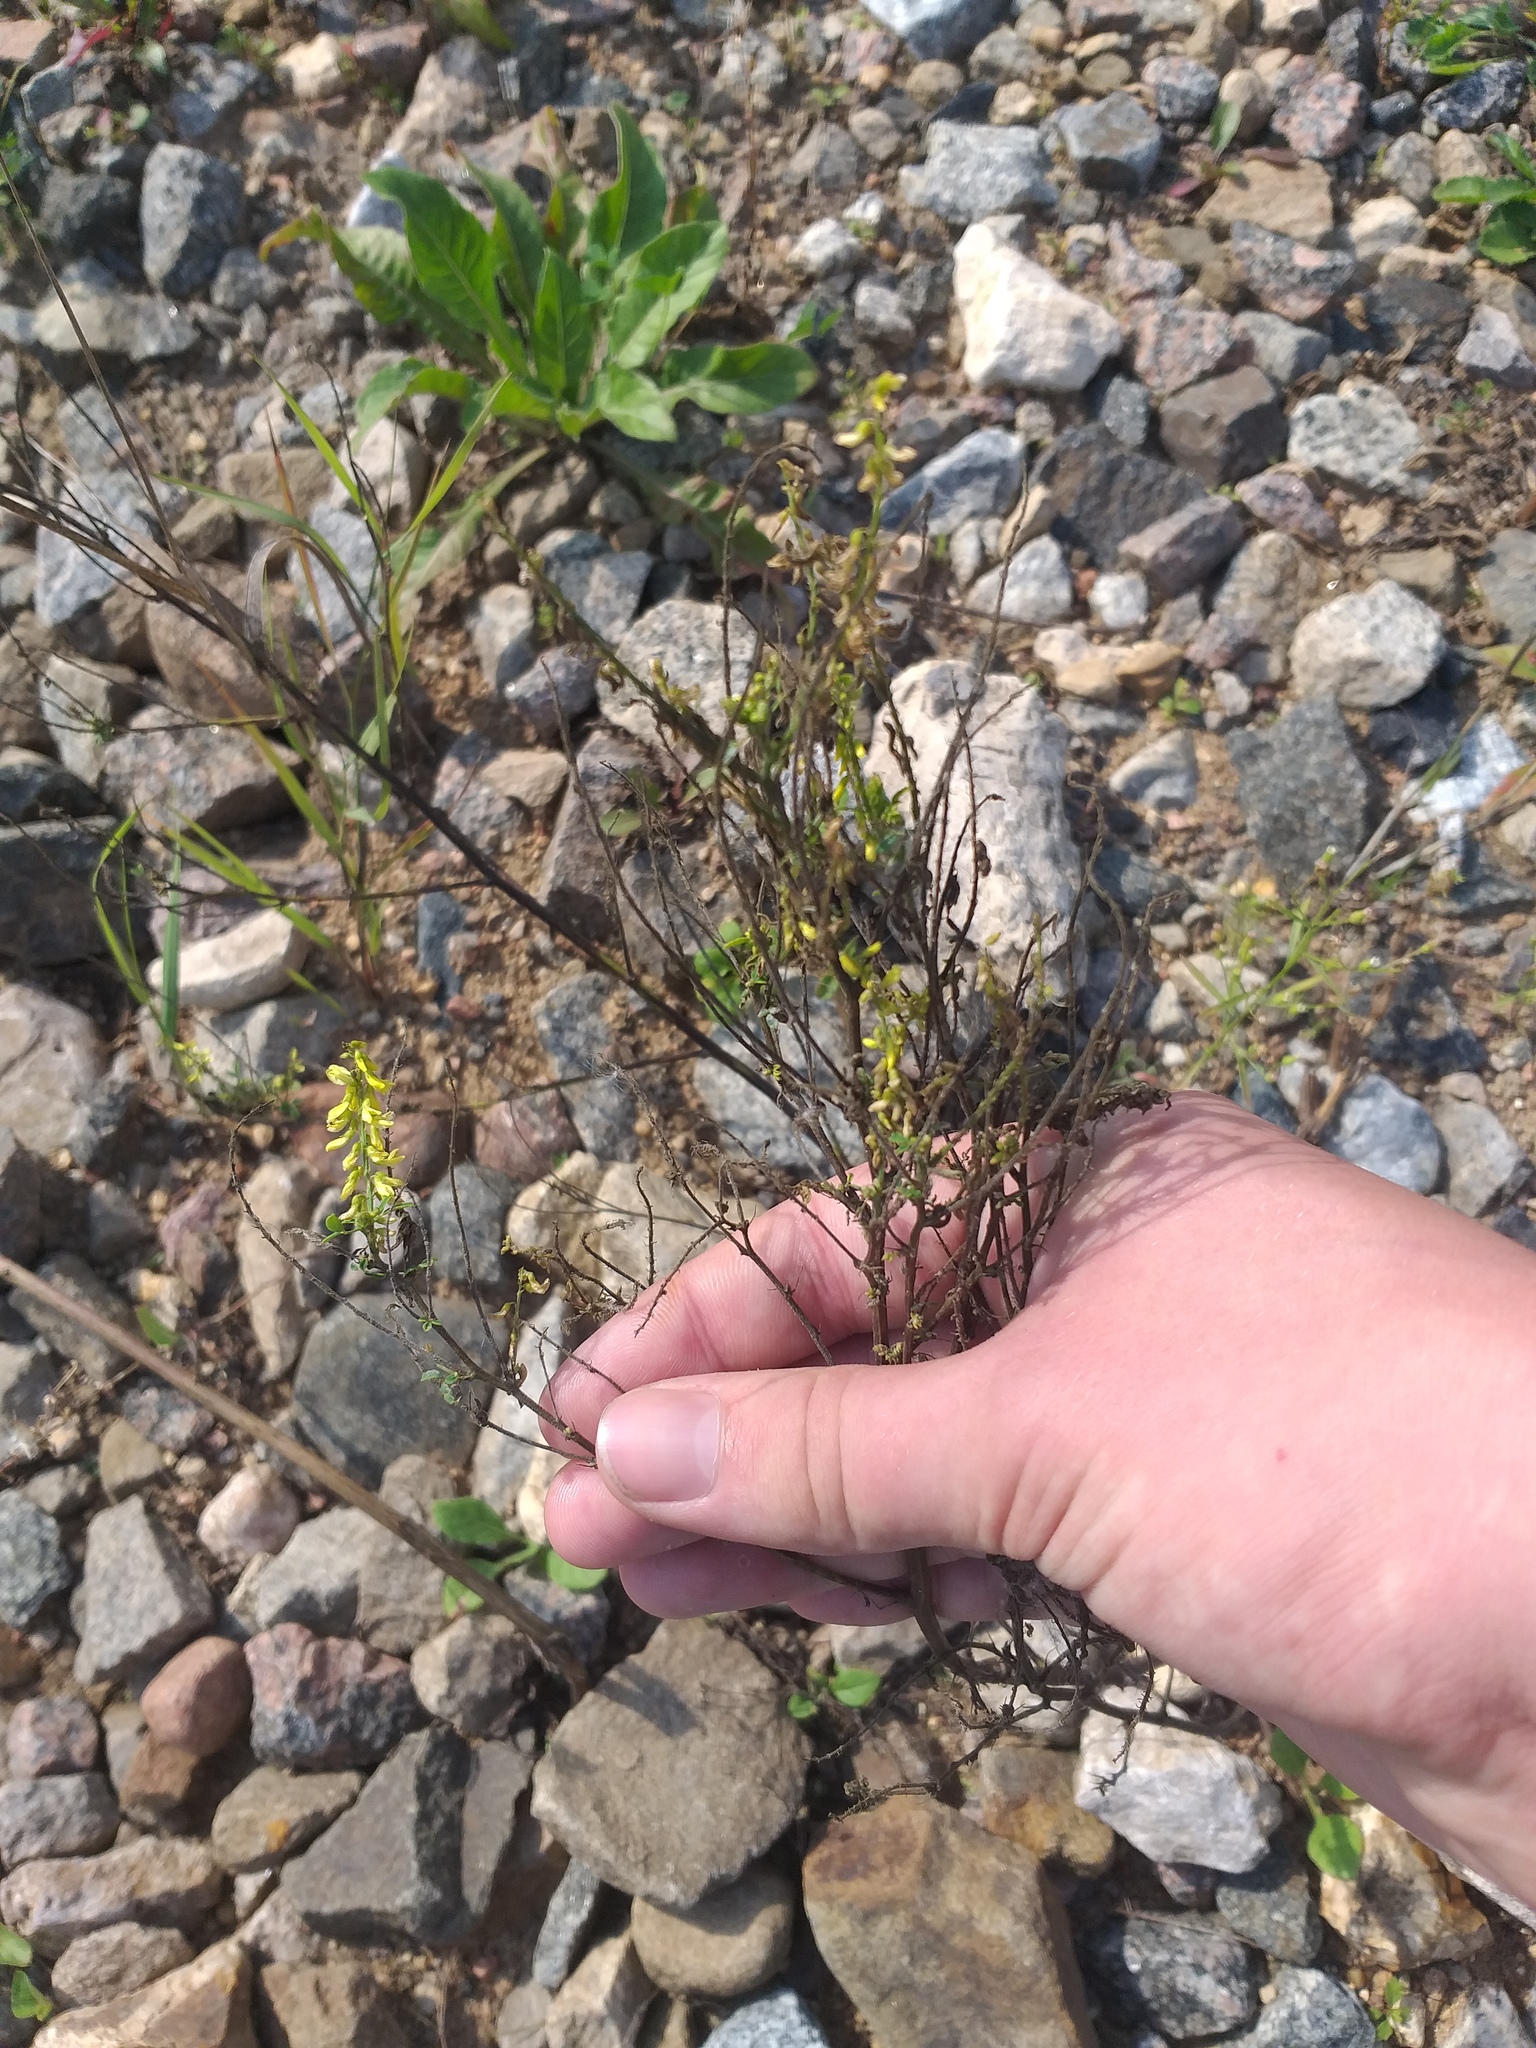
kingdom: Plantae
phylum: Tracheophyta
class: Magnoliopsida
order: Fabales
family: Fabaceae
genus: Melilotus
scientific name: Melilotus officinalis
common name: Sweetclover
